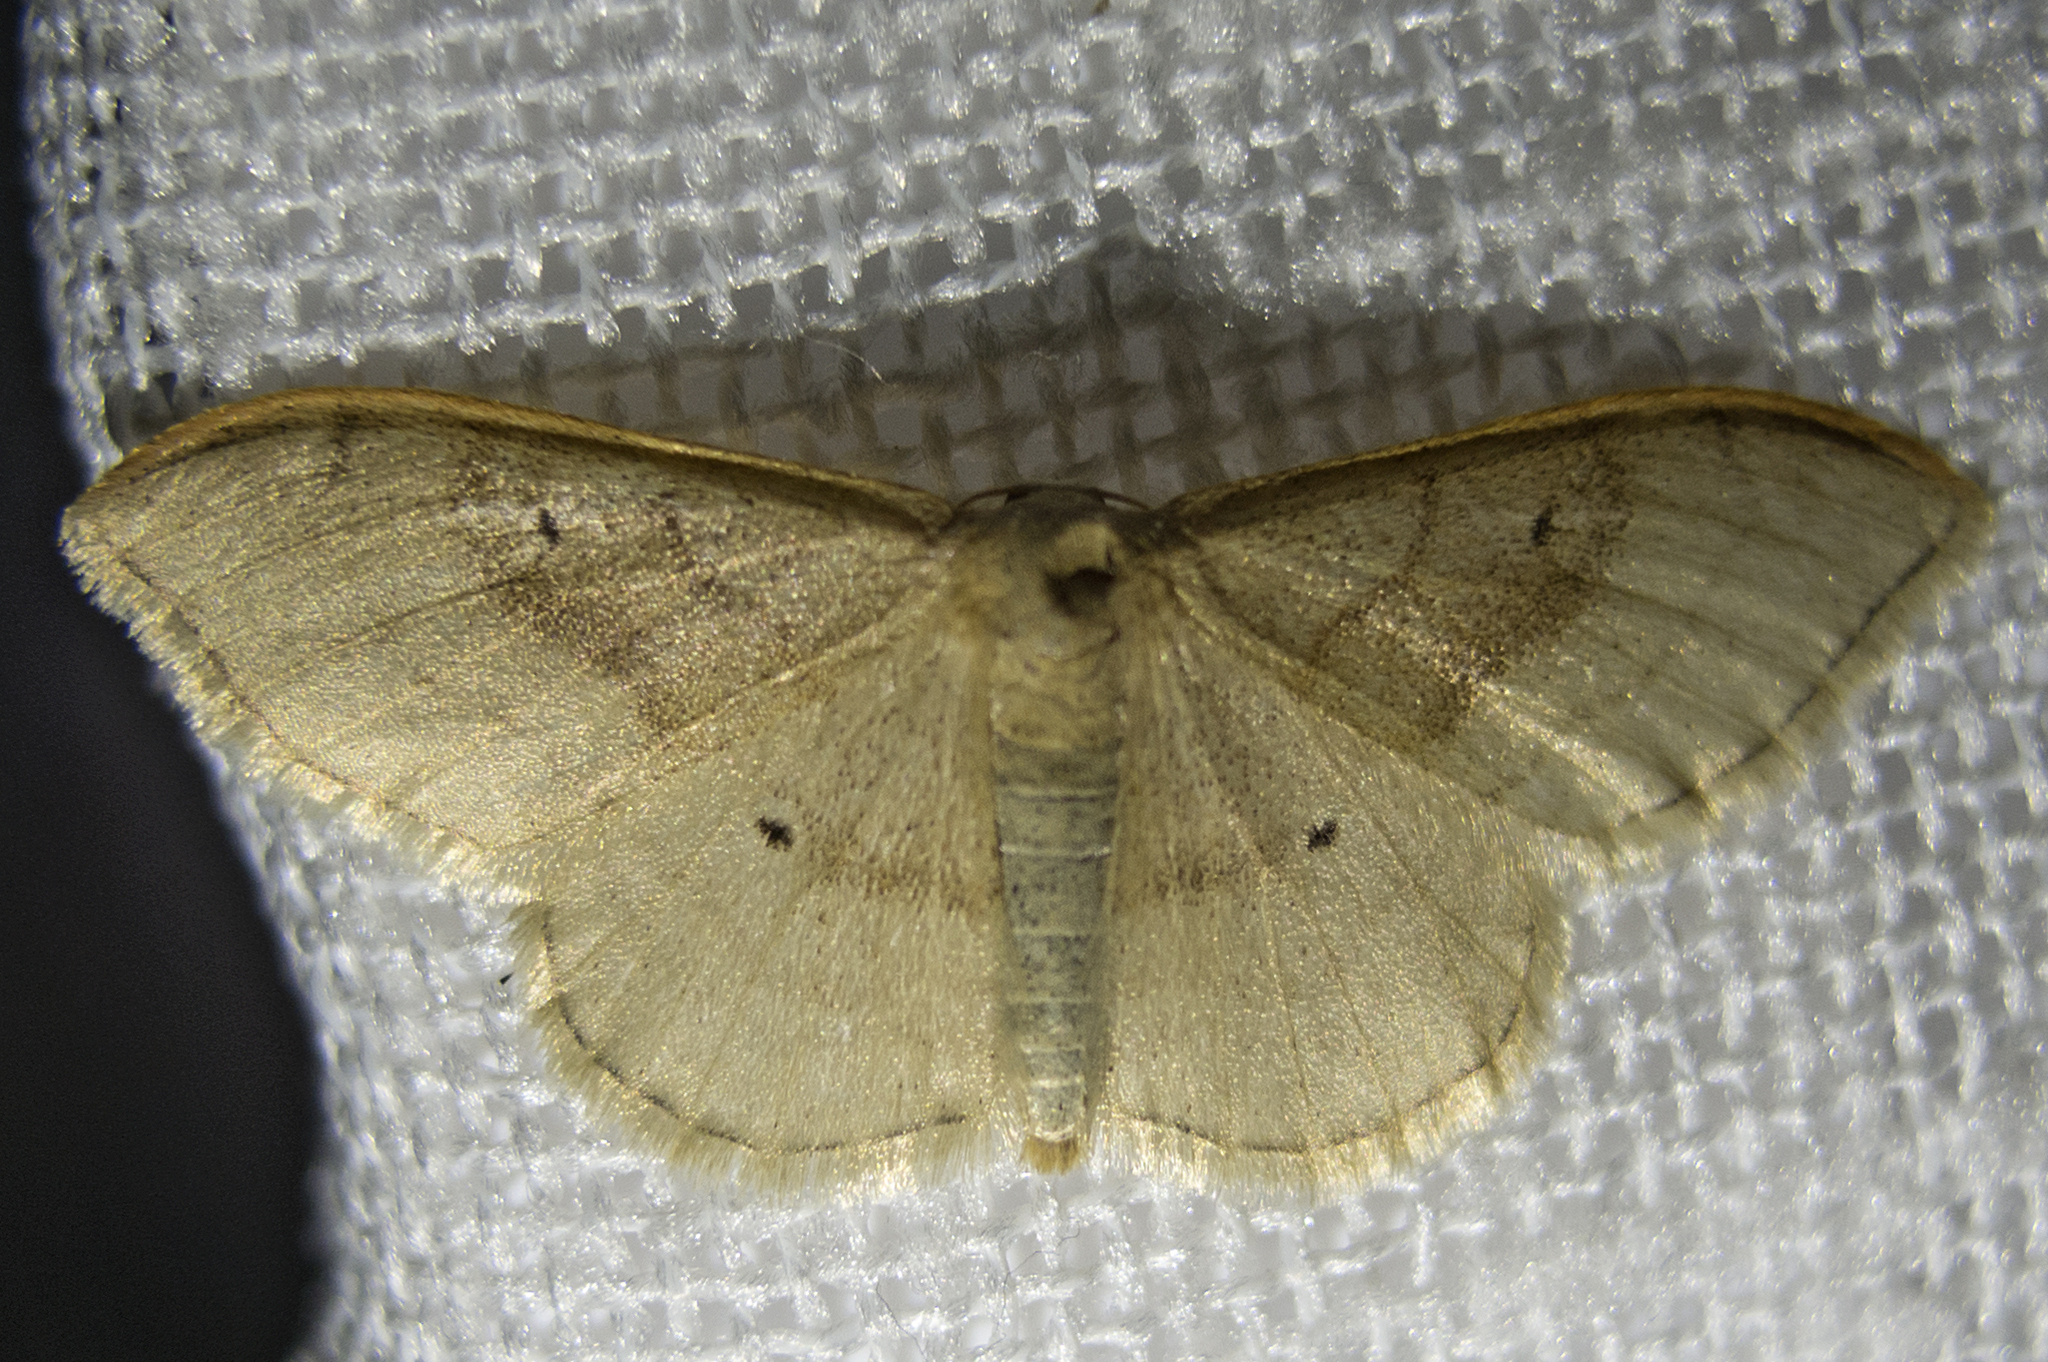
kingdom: Animalia
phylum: Arthropoda
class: Insecta
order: Lepidoptera
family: Geometridae
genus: Idaea
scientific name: Idaea degeneraria
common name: Portland ribbon wave
